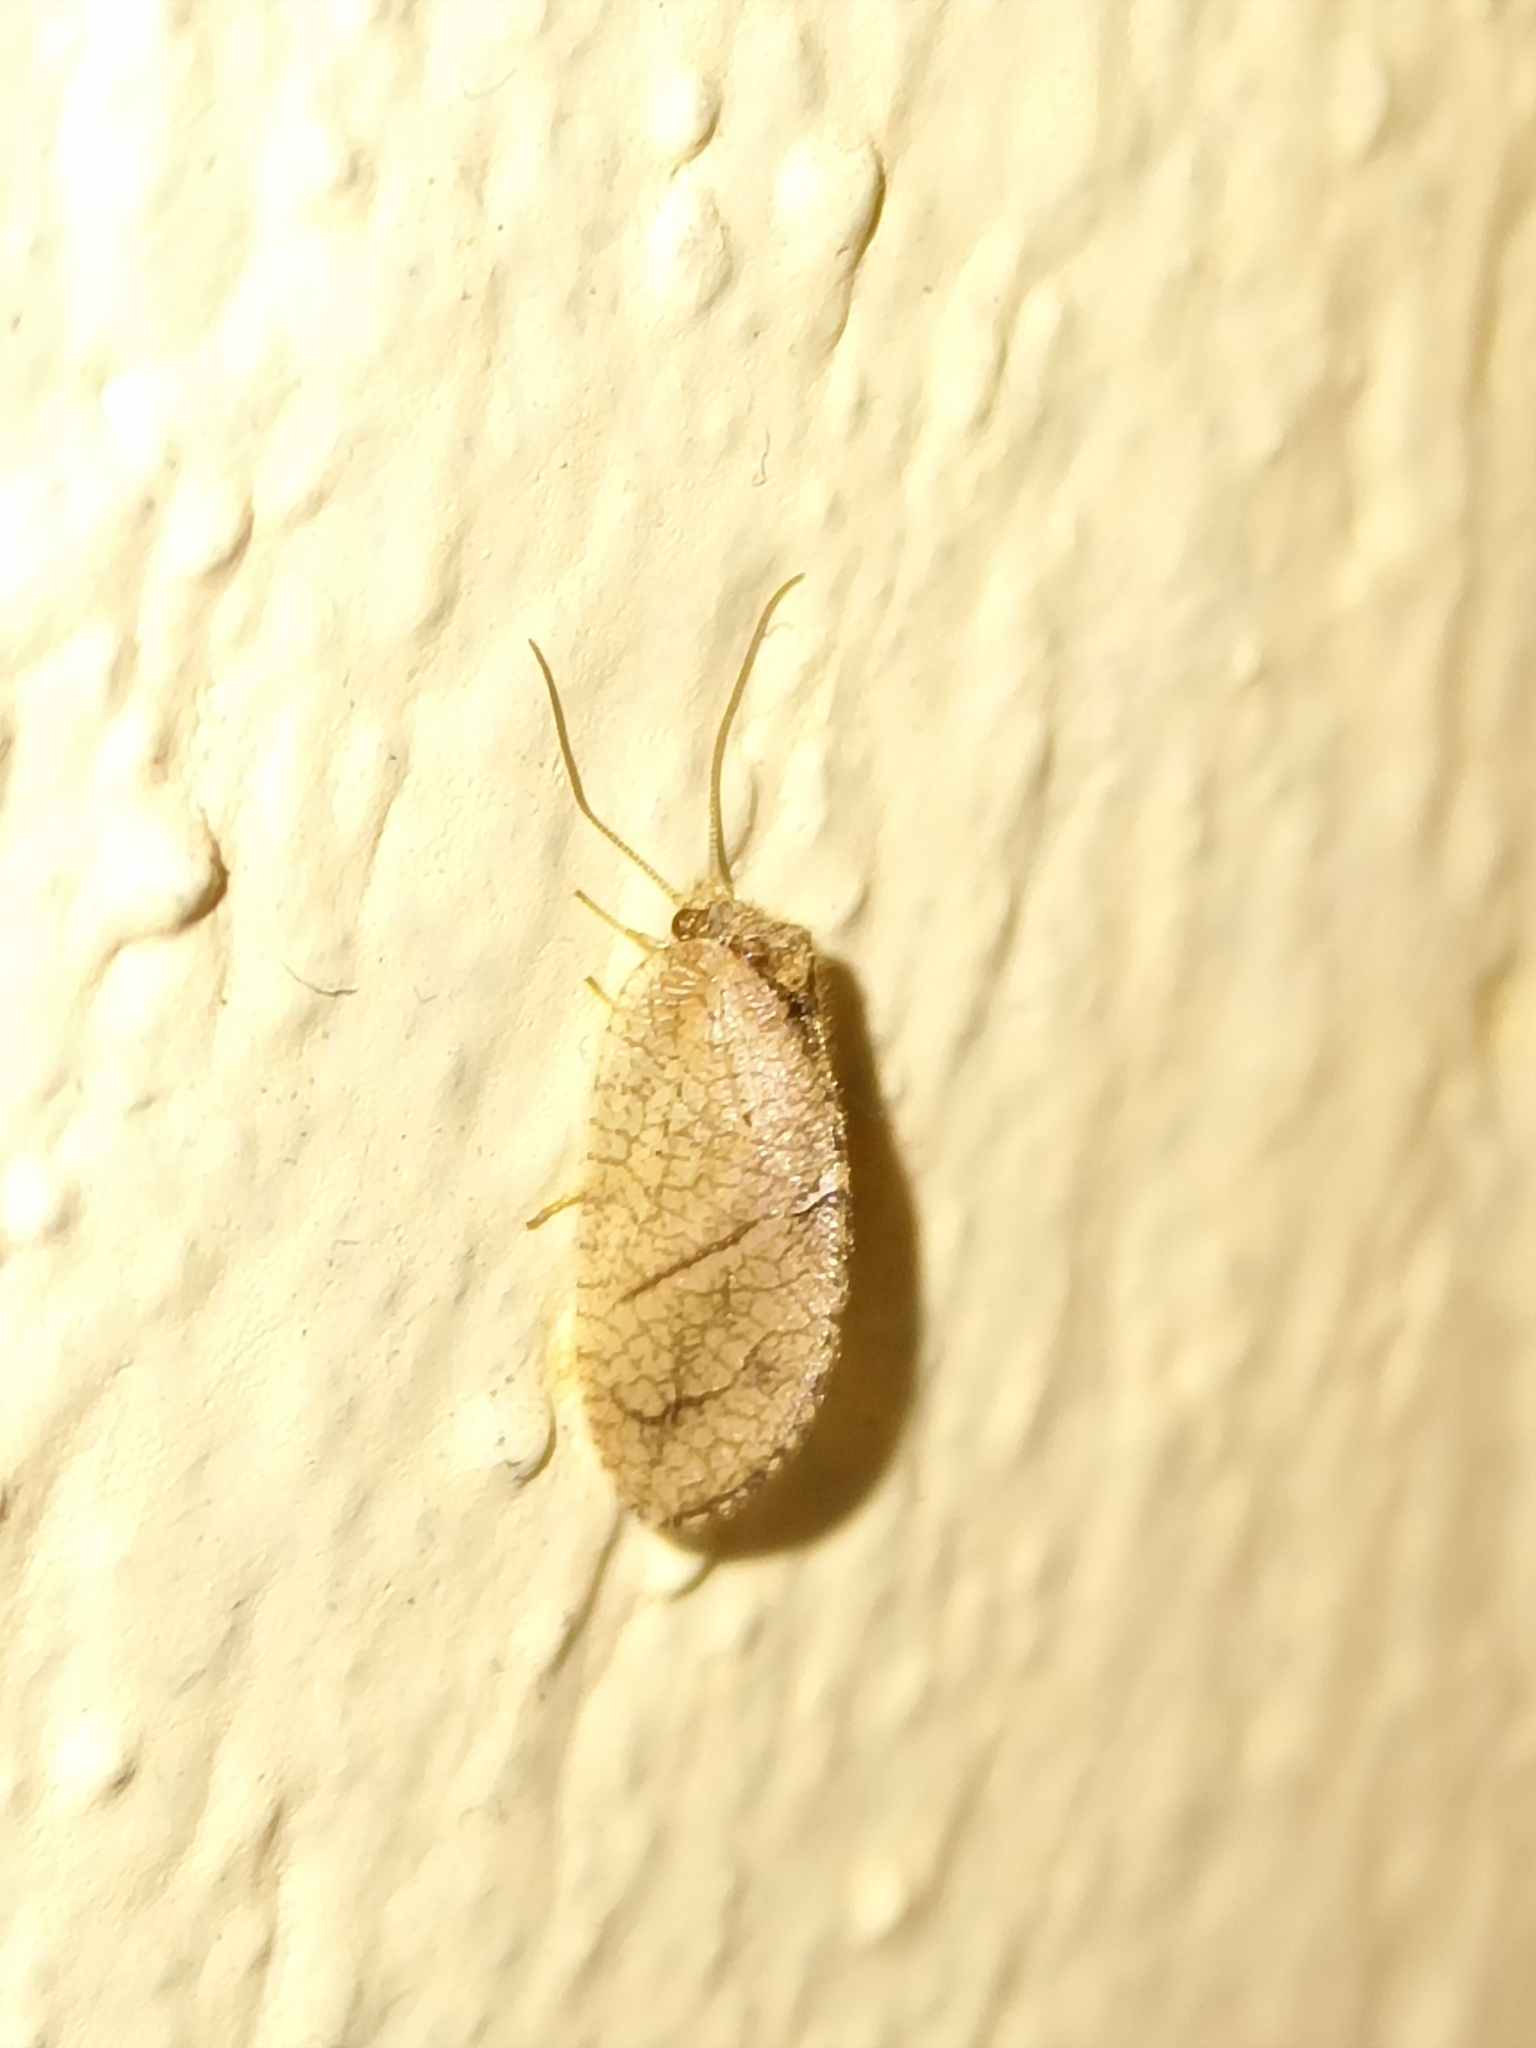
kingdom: Animalia
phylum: Arthropoda
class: Insecta
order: Neuroptera
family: Hemerobiidae
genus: Megalomus
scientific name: Megalomus moestus
